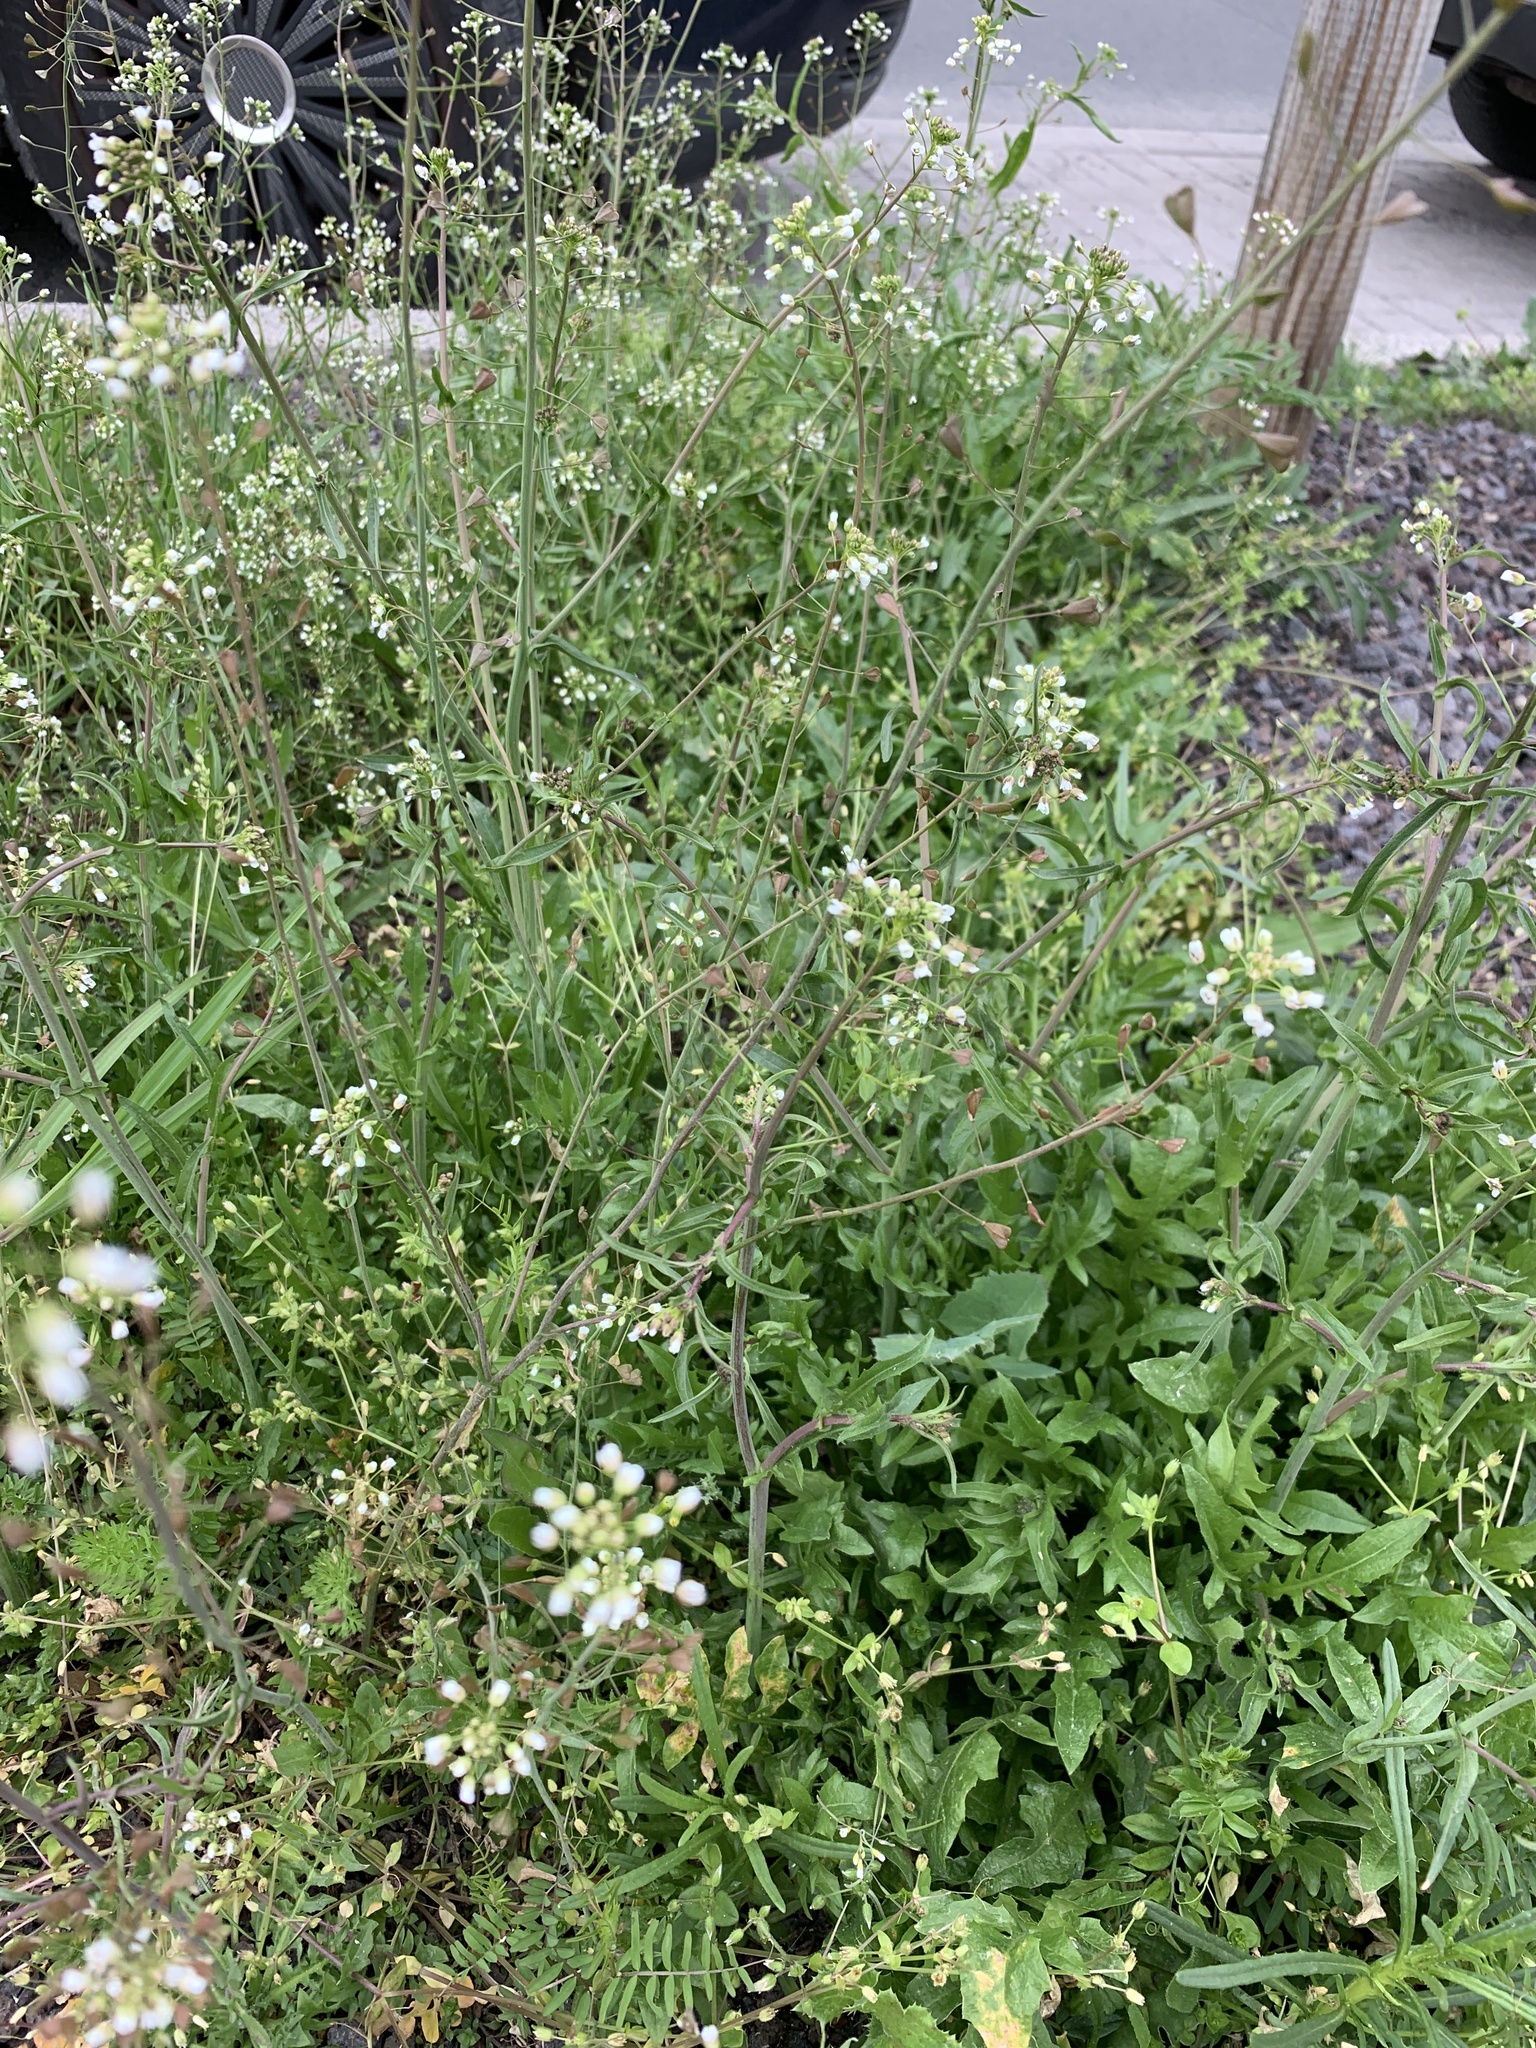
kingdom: Plantae
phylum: Tracheophyta
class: Magnoliopsida
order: Brassicales
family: Brassicaceae
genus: Capsella
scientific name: Capsella bursa-pastoris
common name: Shepherd's purse
